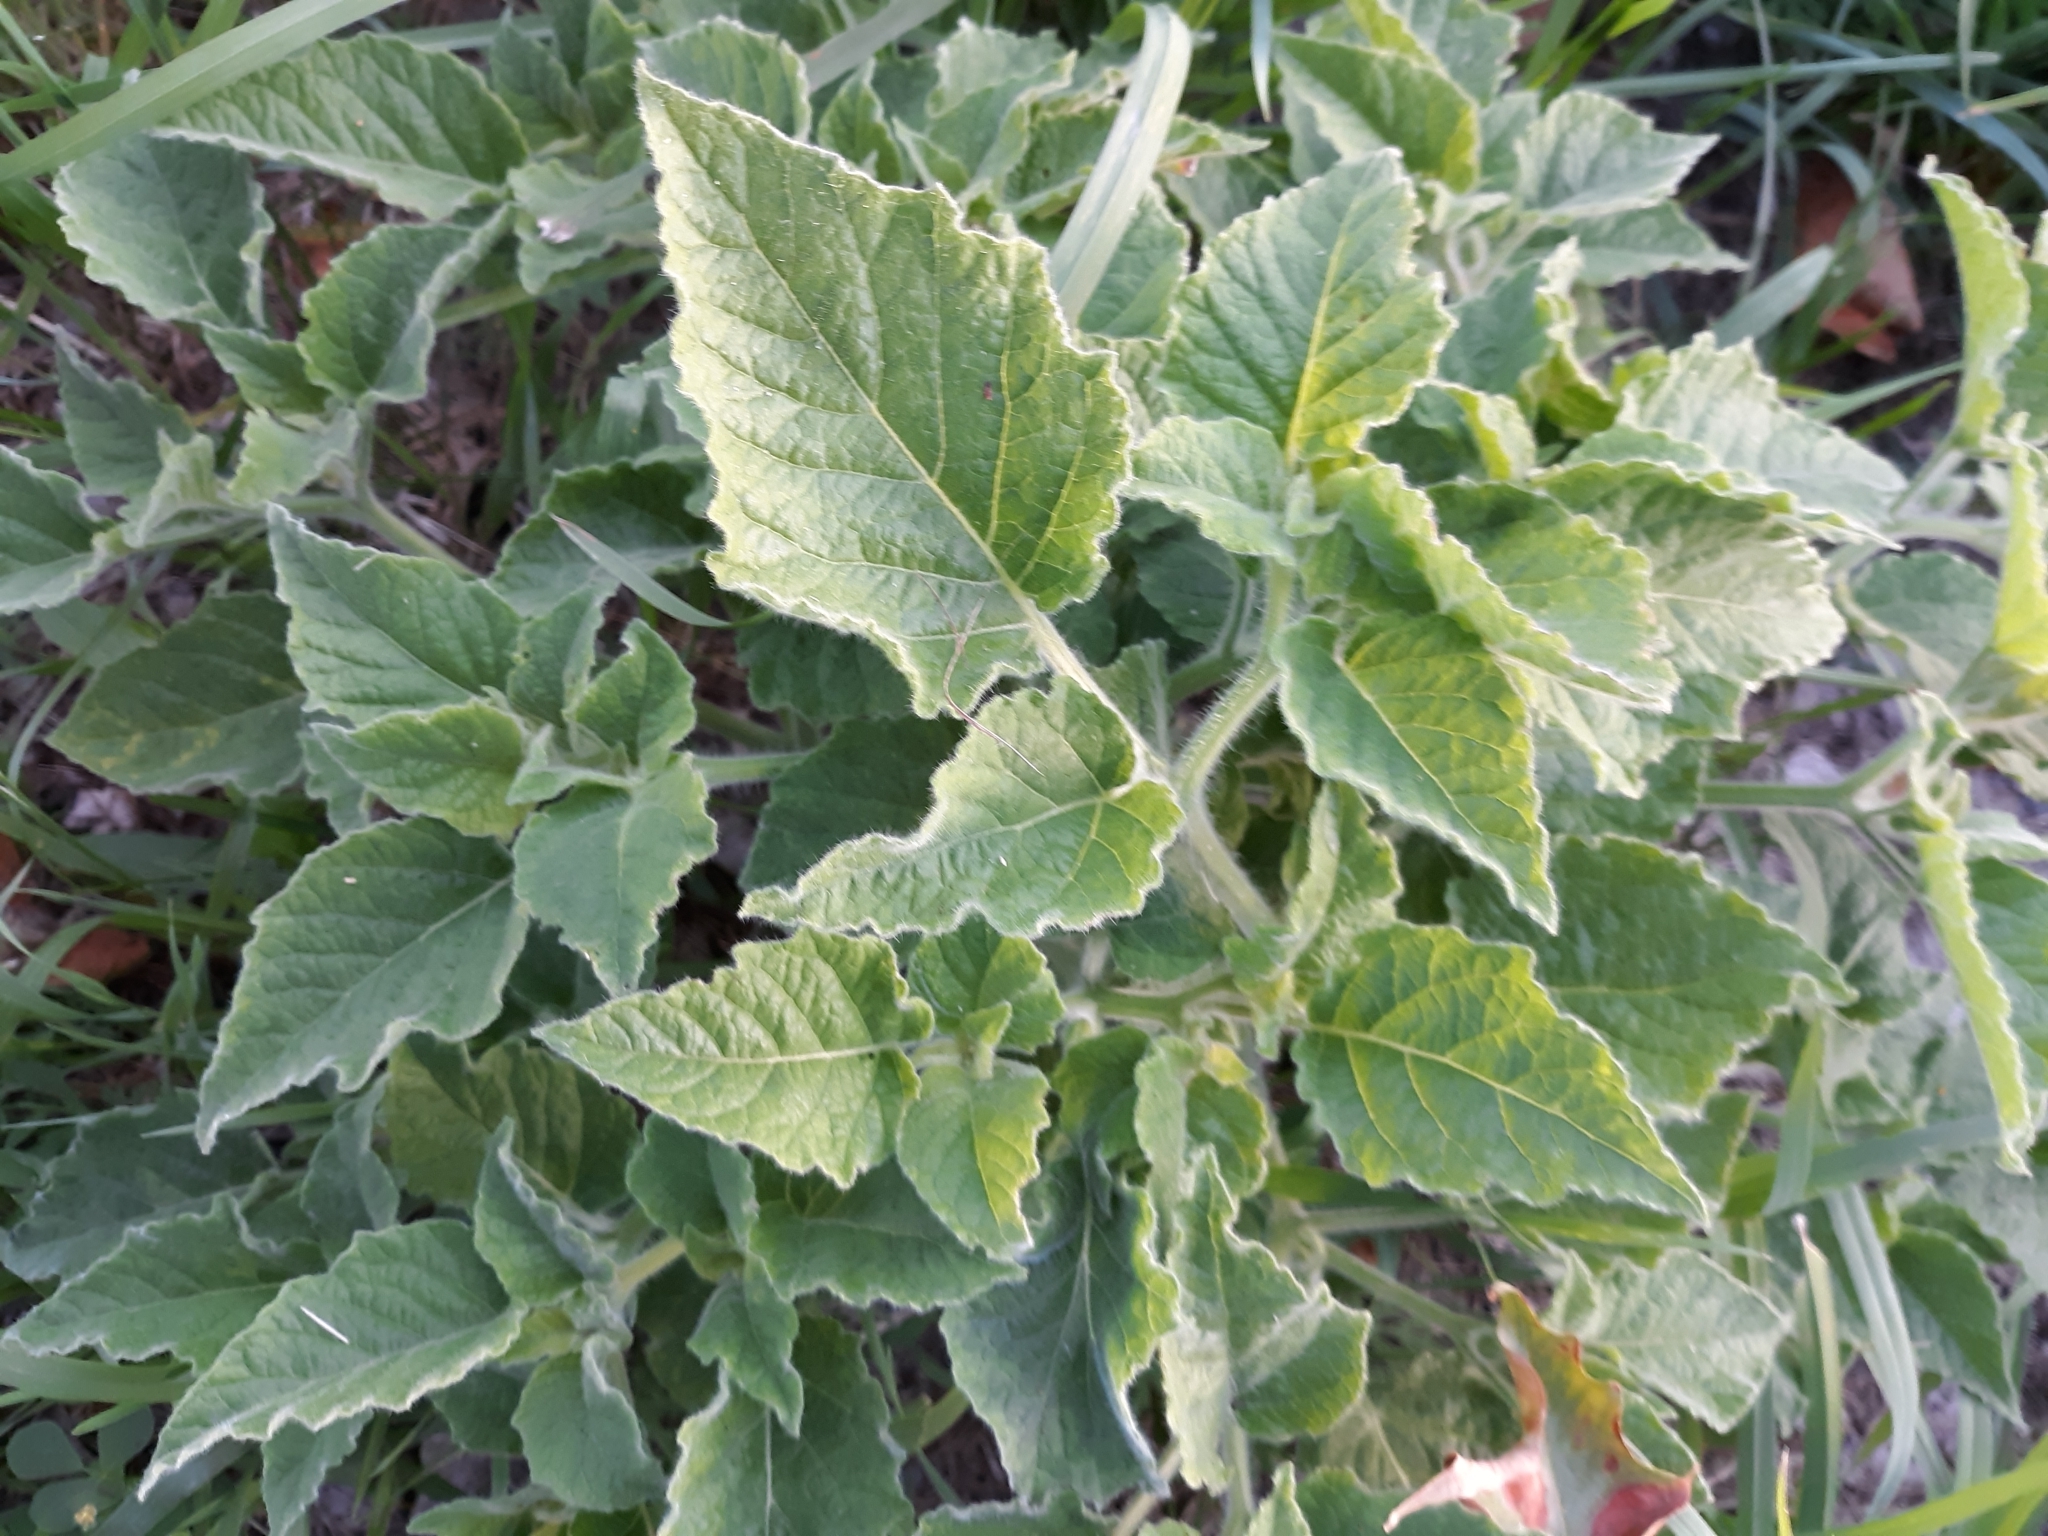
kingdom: Plantae
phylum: Tracheophyta
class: Magnoliopsida
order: Solanales
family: Solanaceae
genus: Physalis
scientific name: Physalis heterophylla
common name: Clammy ground-cherry
